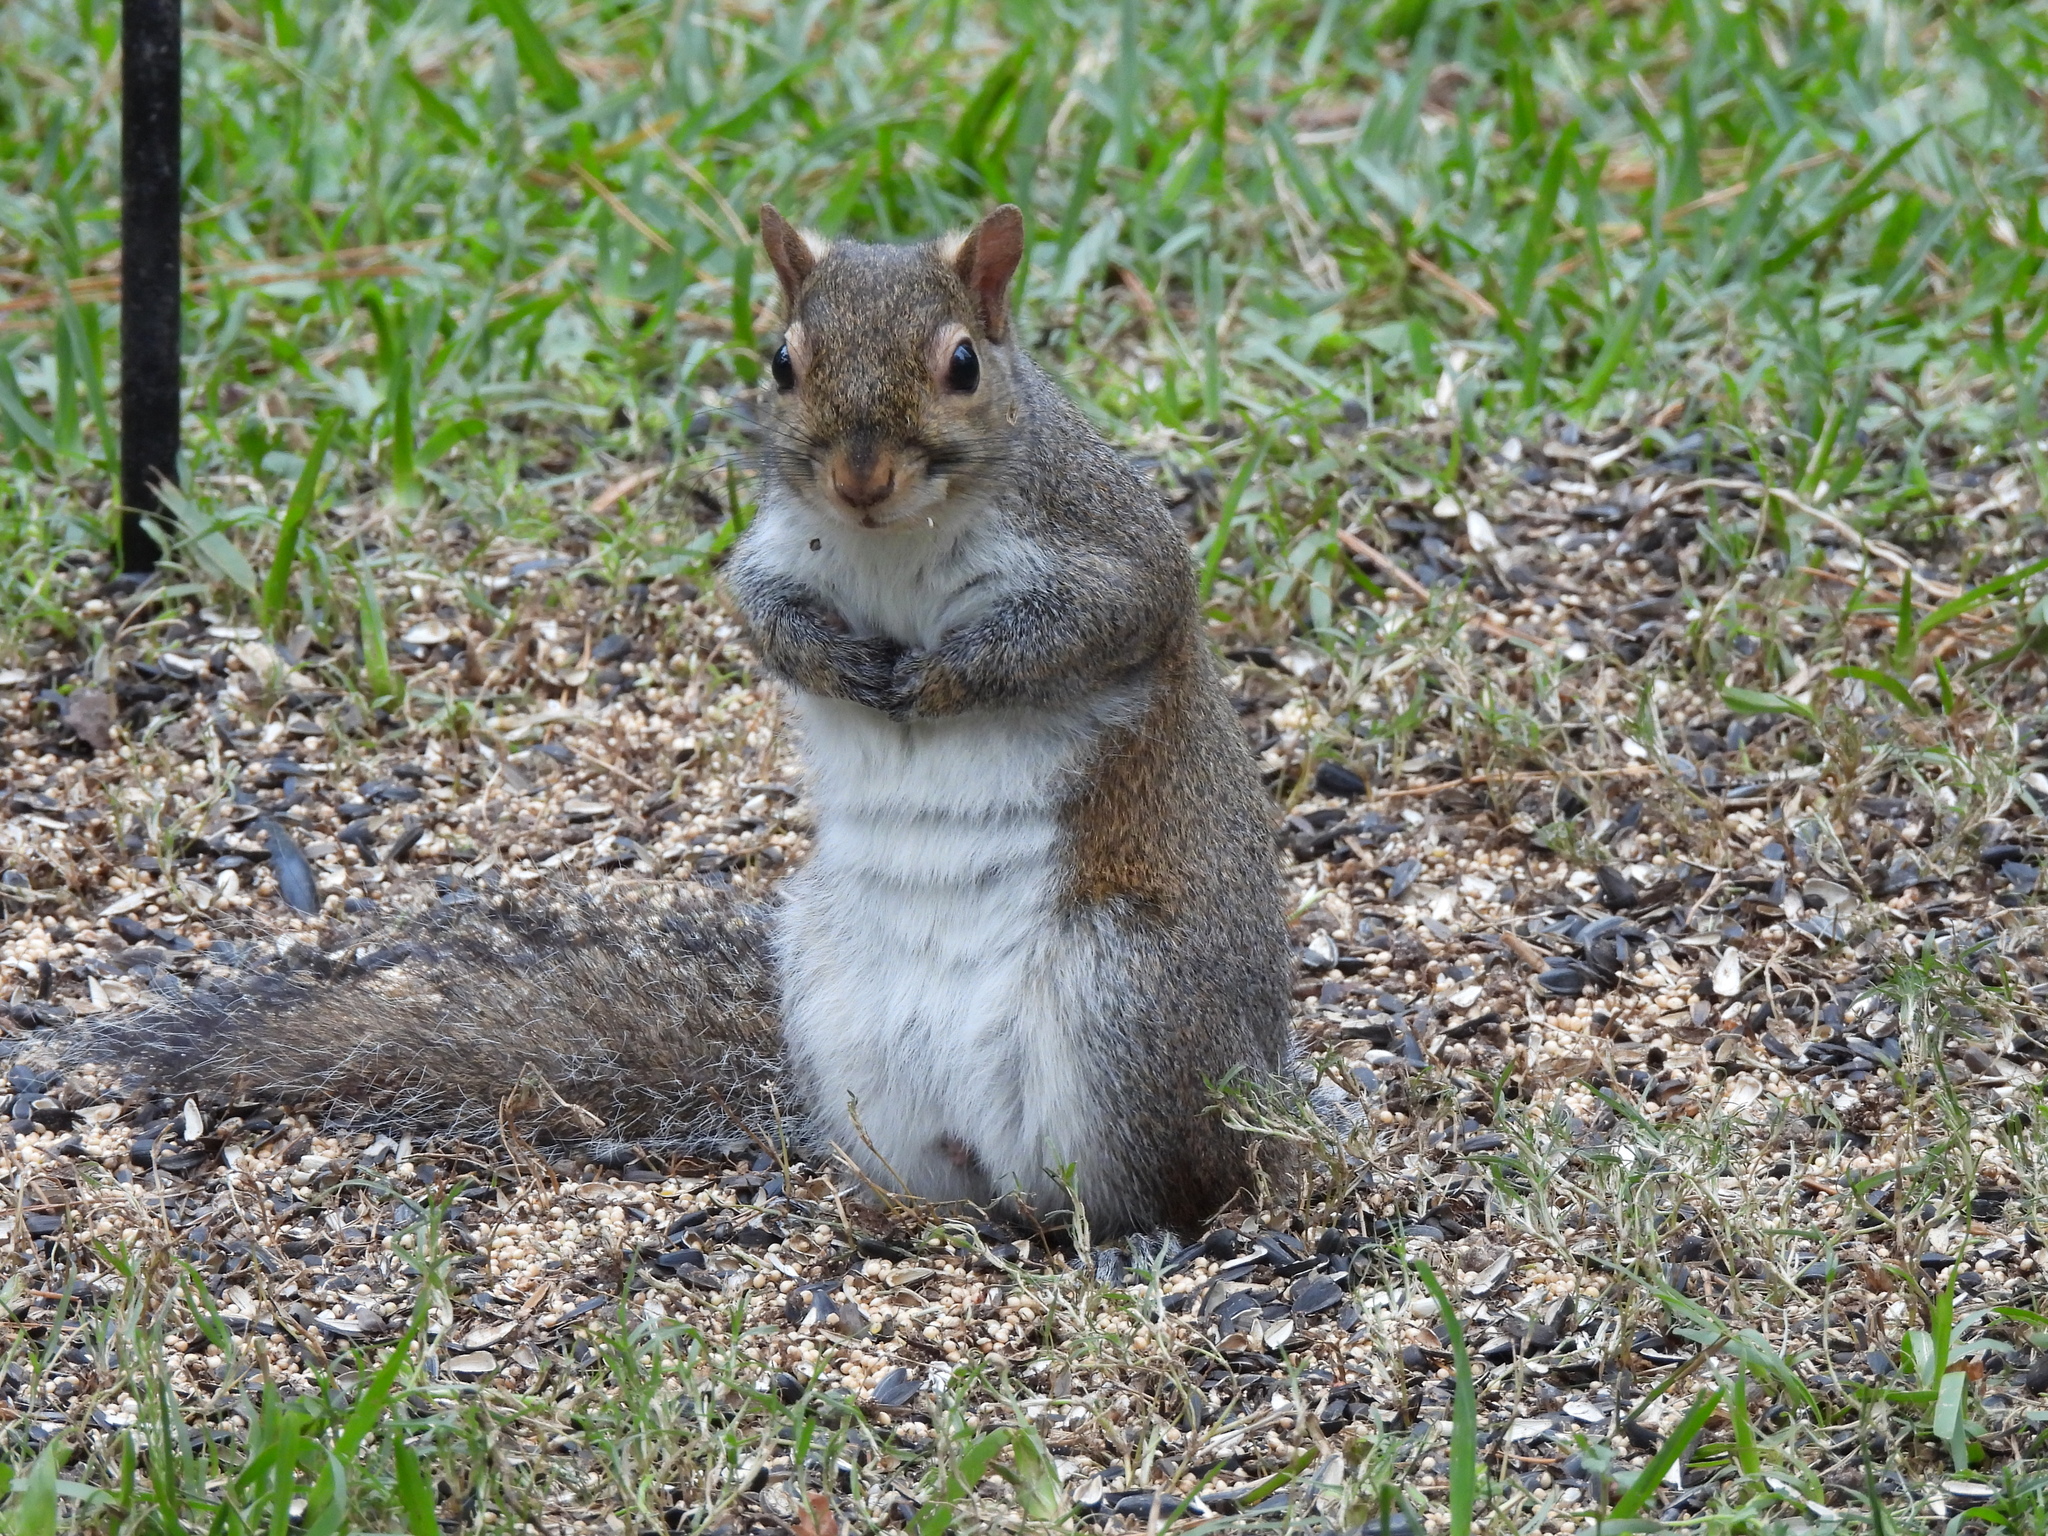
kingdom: Animalia
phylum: Chordata
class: Mammalia
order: Rodentia
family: Sciuridae
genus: Sciurus
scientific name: Sciurus carolinensis
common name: Eastern gray squirrel
